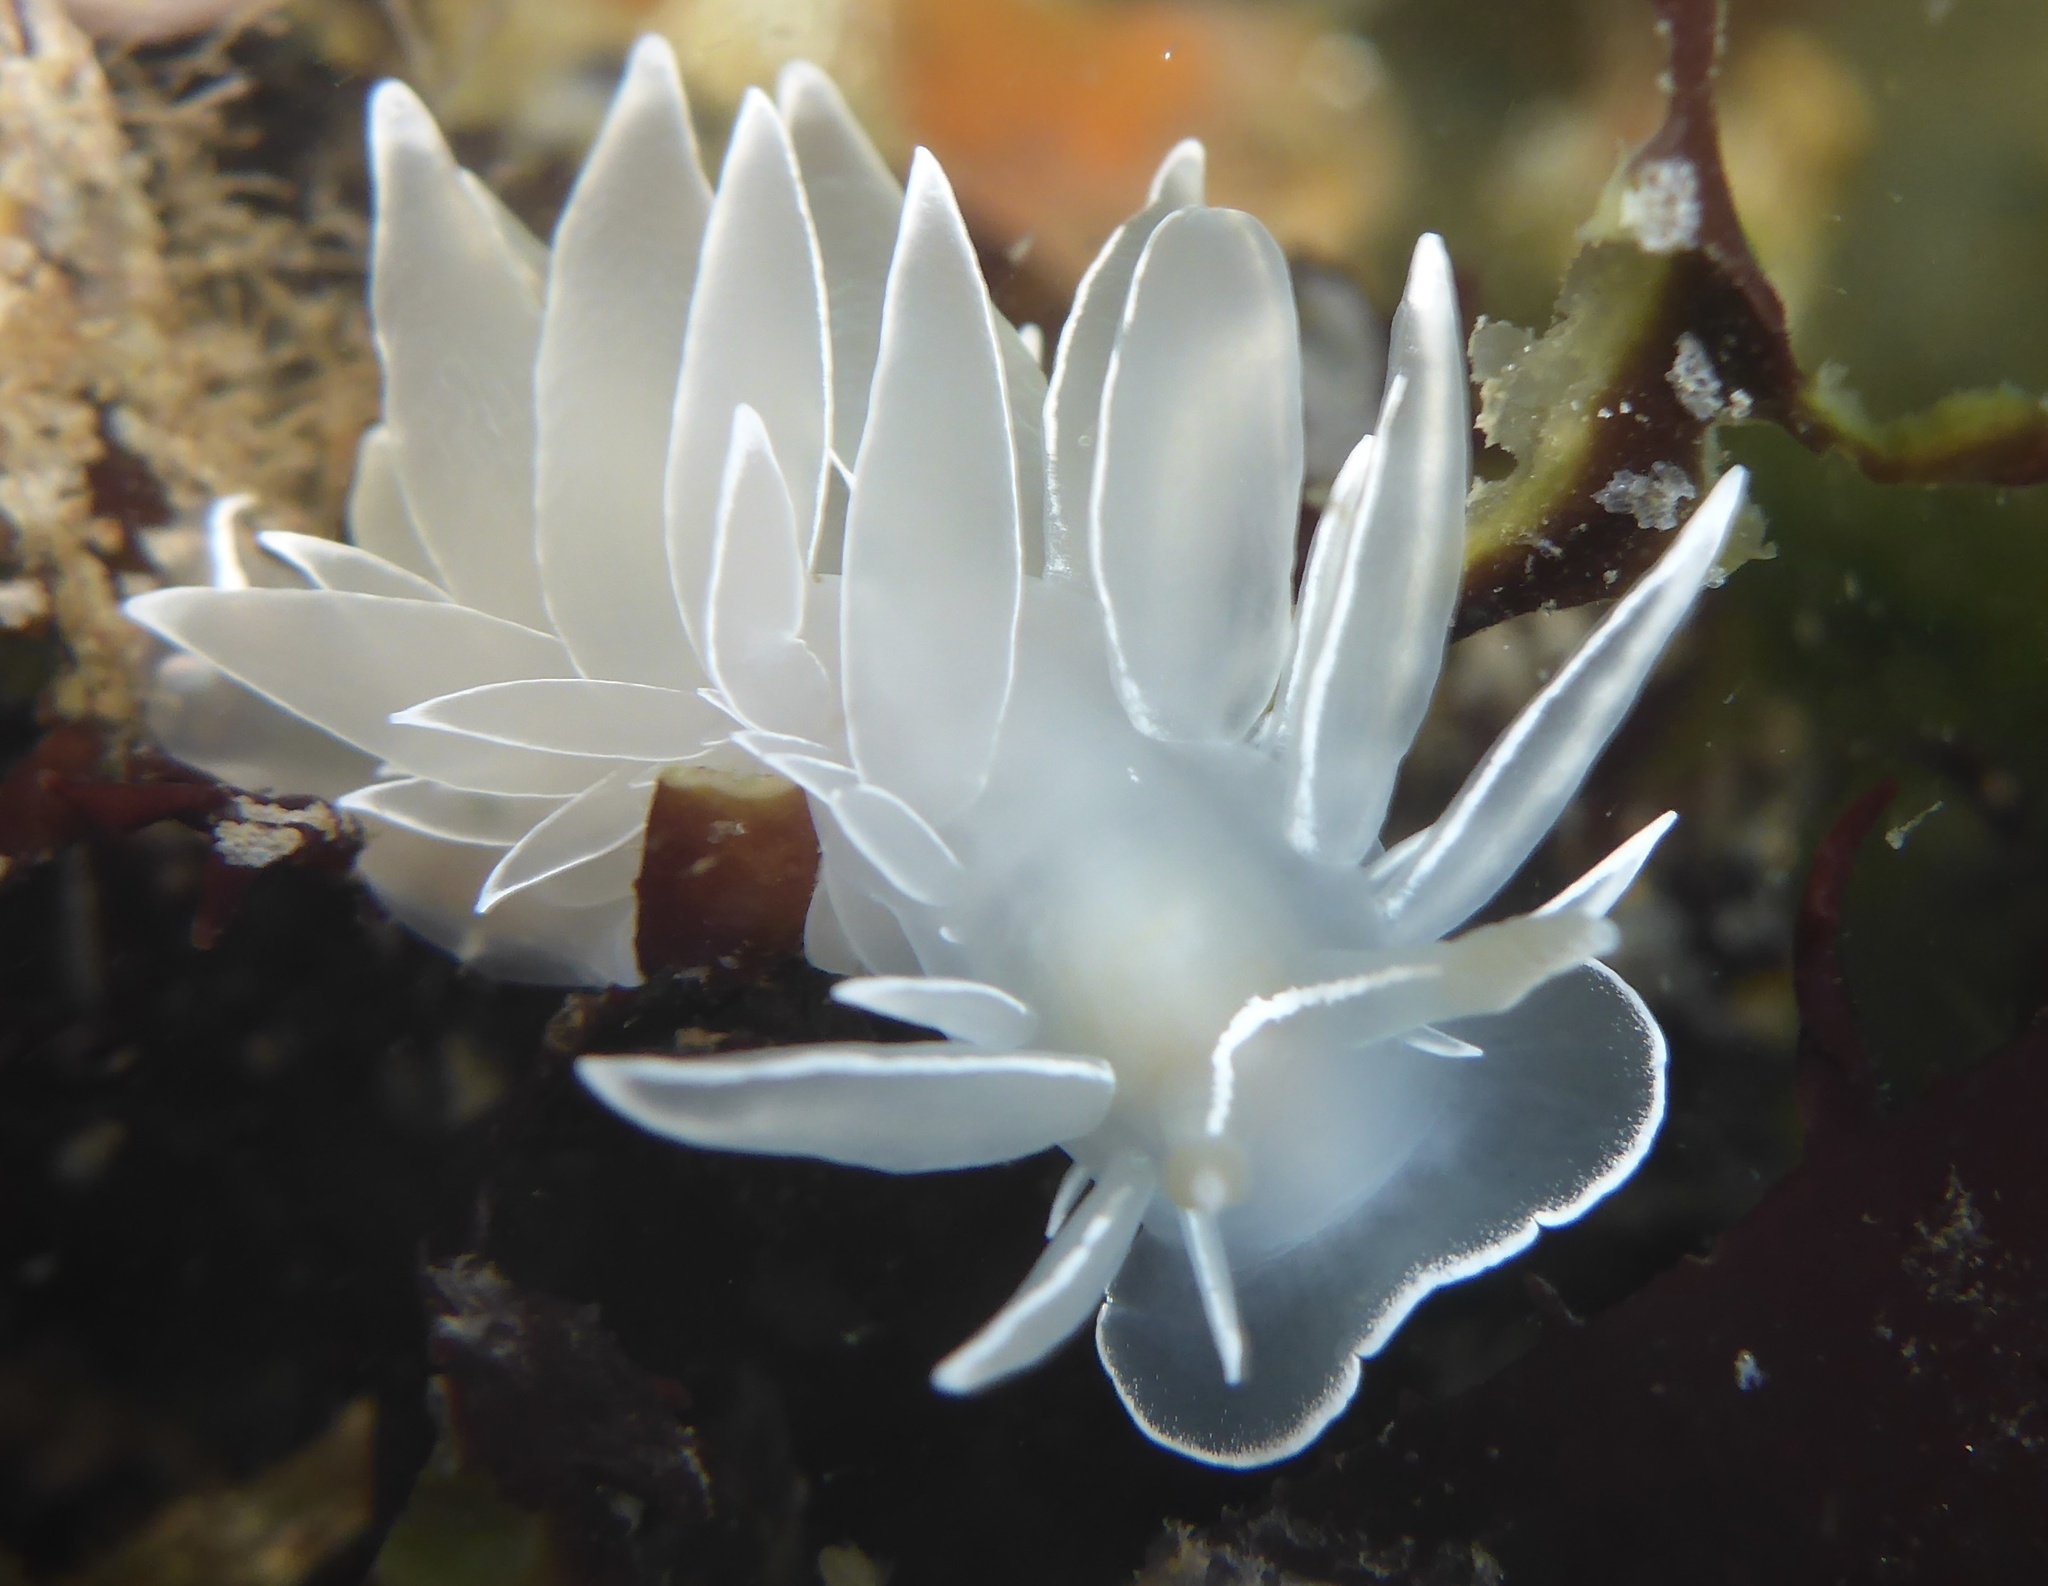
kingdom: Animalia
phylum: Mollusca
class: Gastropoda
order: Nudibranchia
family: Dironidae
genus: Dirona
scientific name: Dirona albolineata
